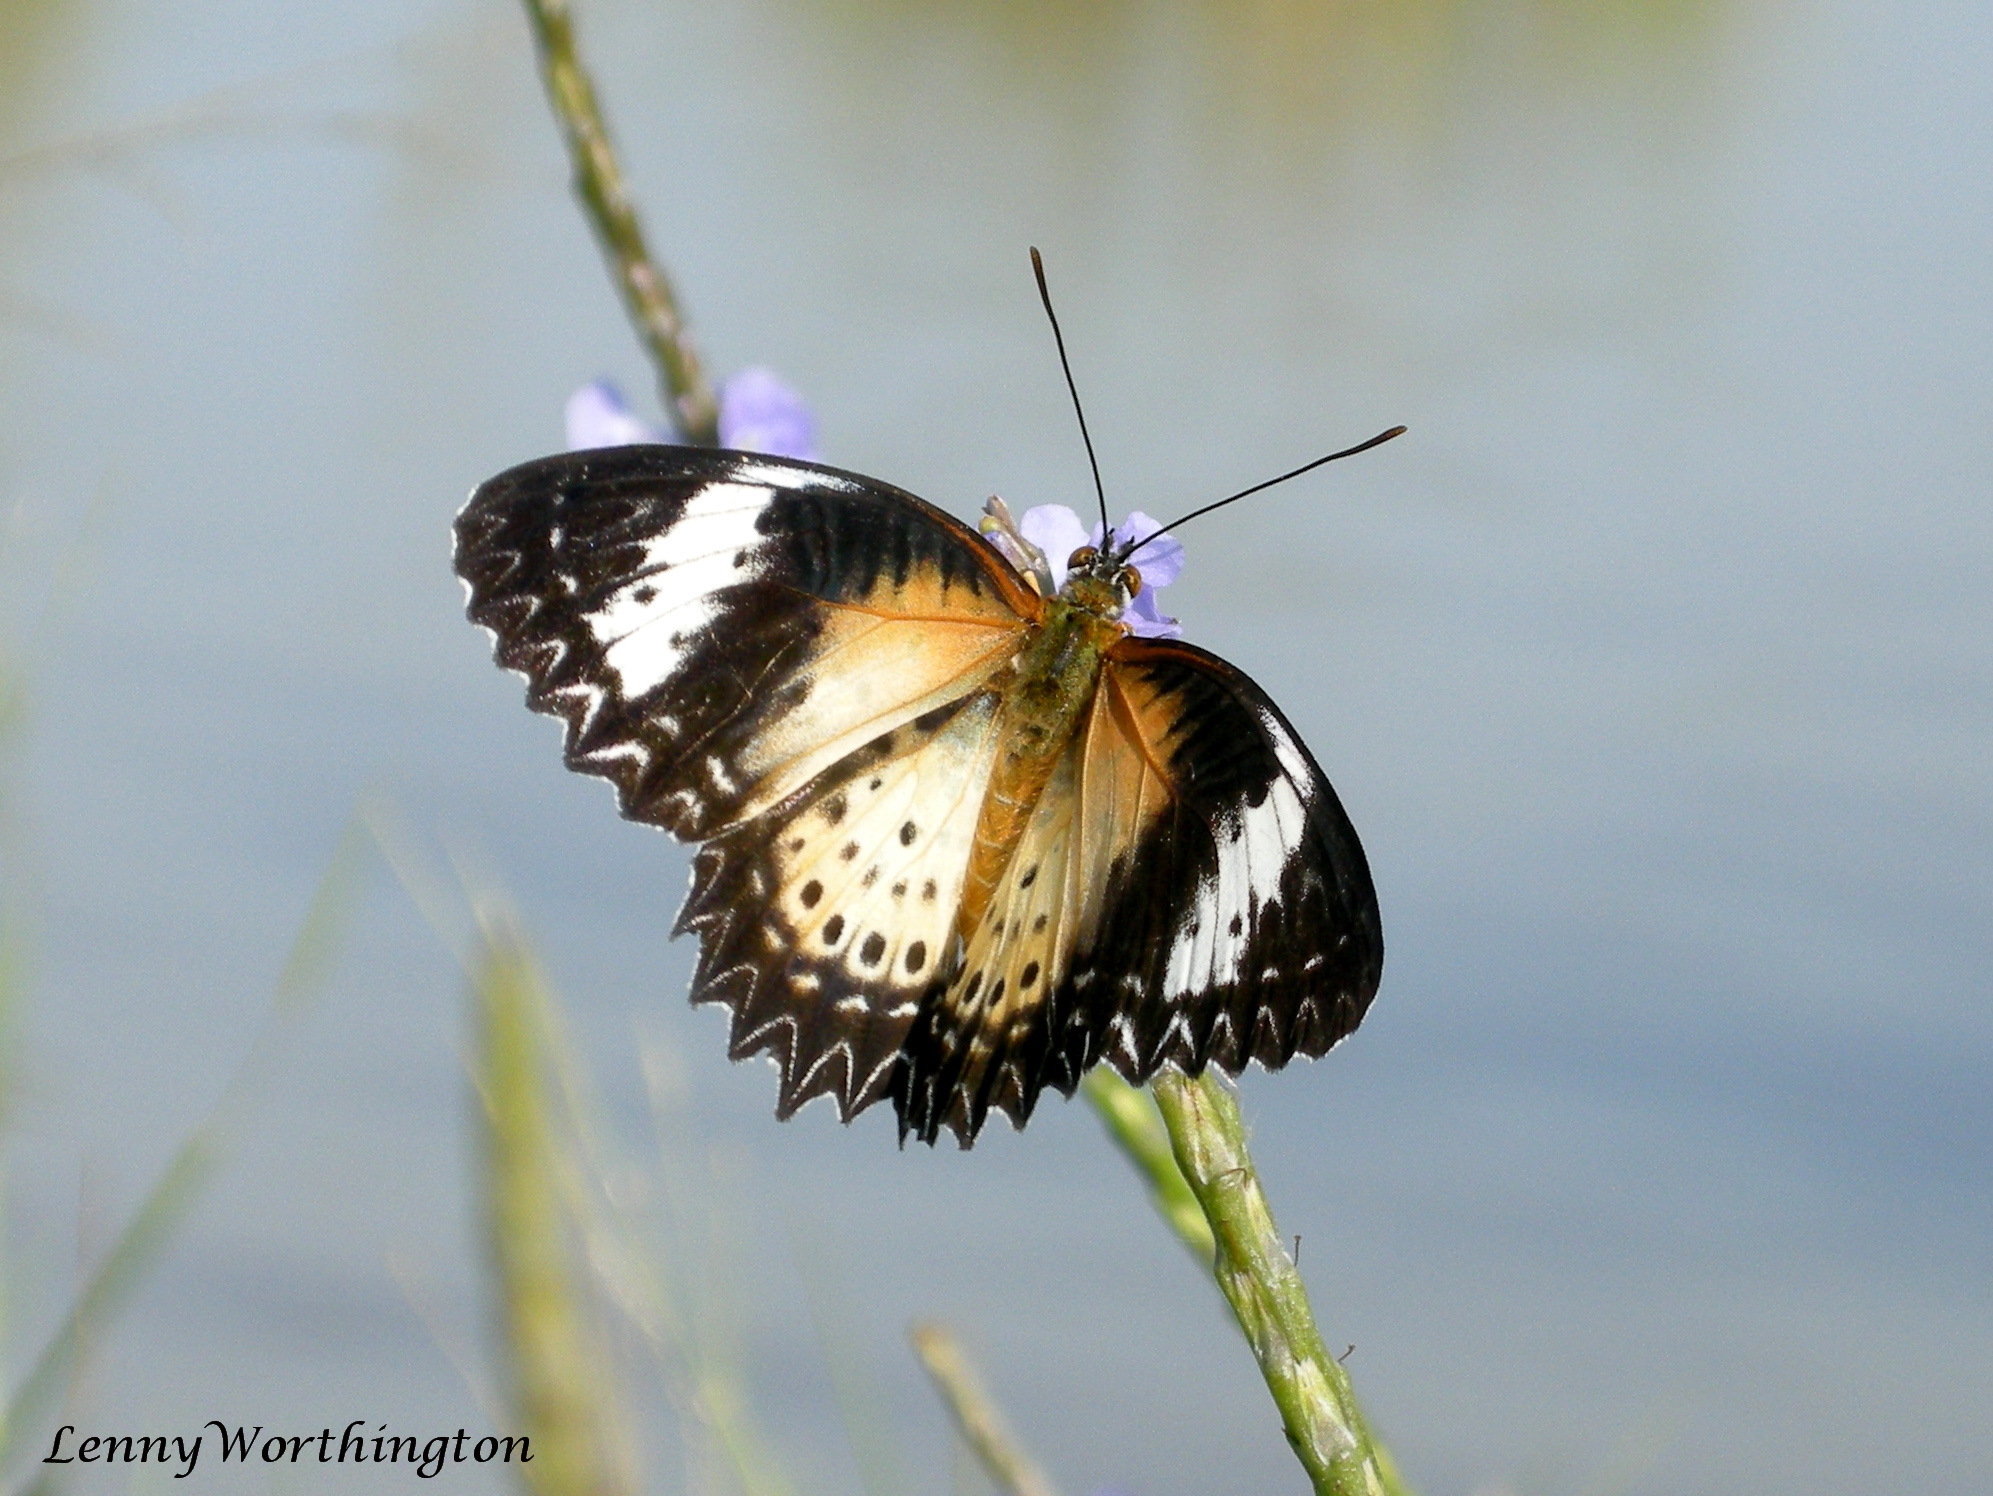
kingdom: Animalia
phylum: Arthropoda
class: Insecta
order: Lepidoptera
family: Nymphalidae
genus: Cethosia
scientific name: Cethosia cyane
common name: Leopard lacewing butterfly
